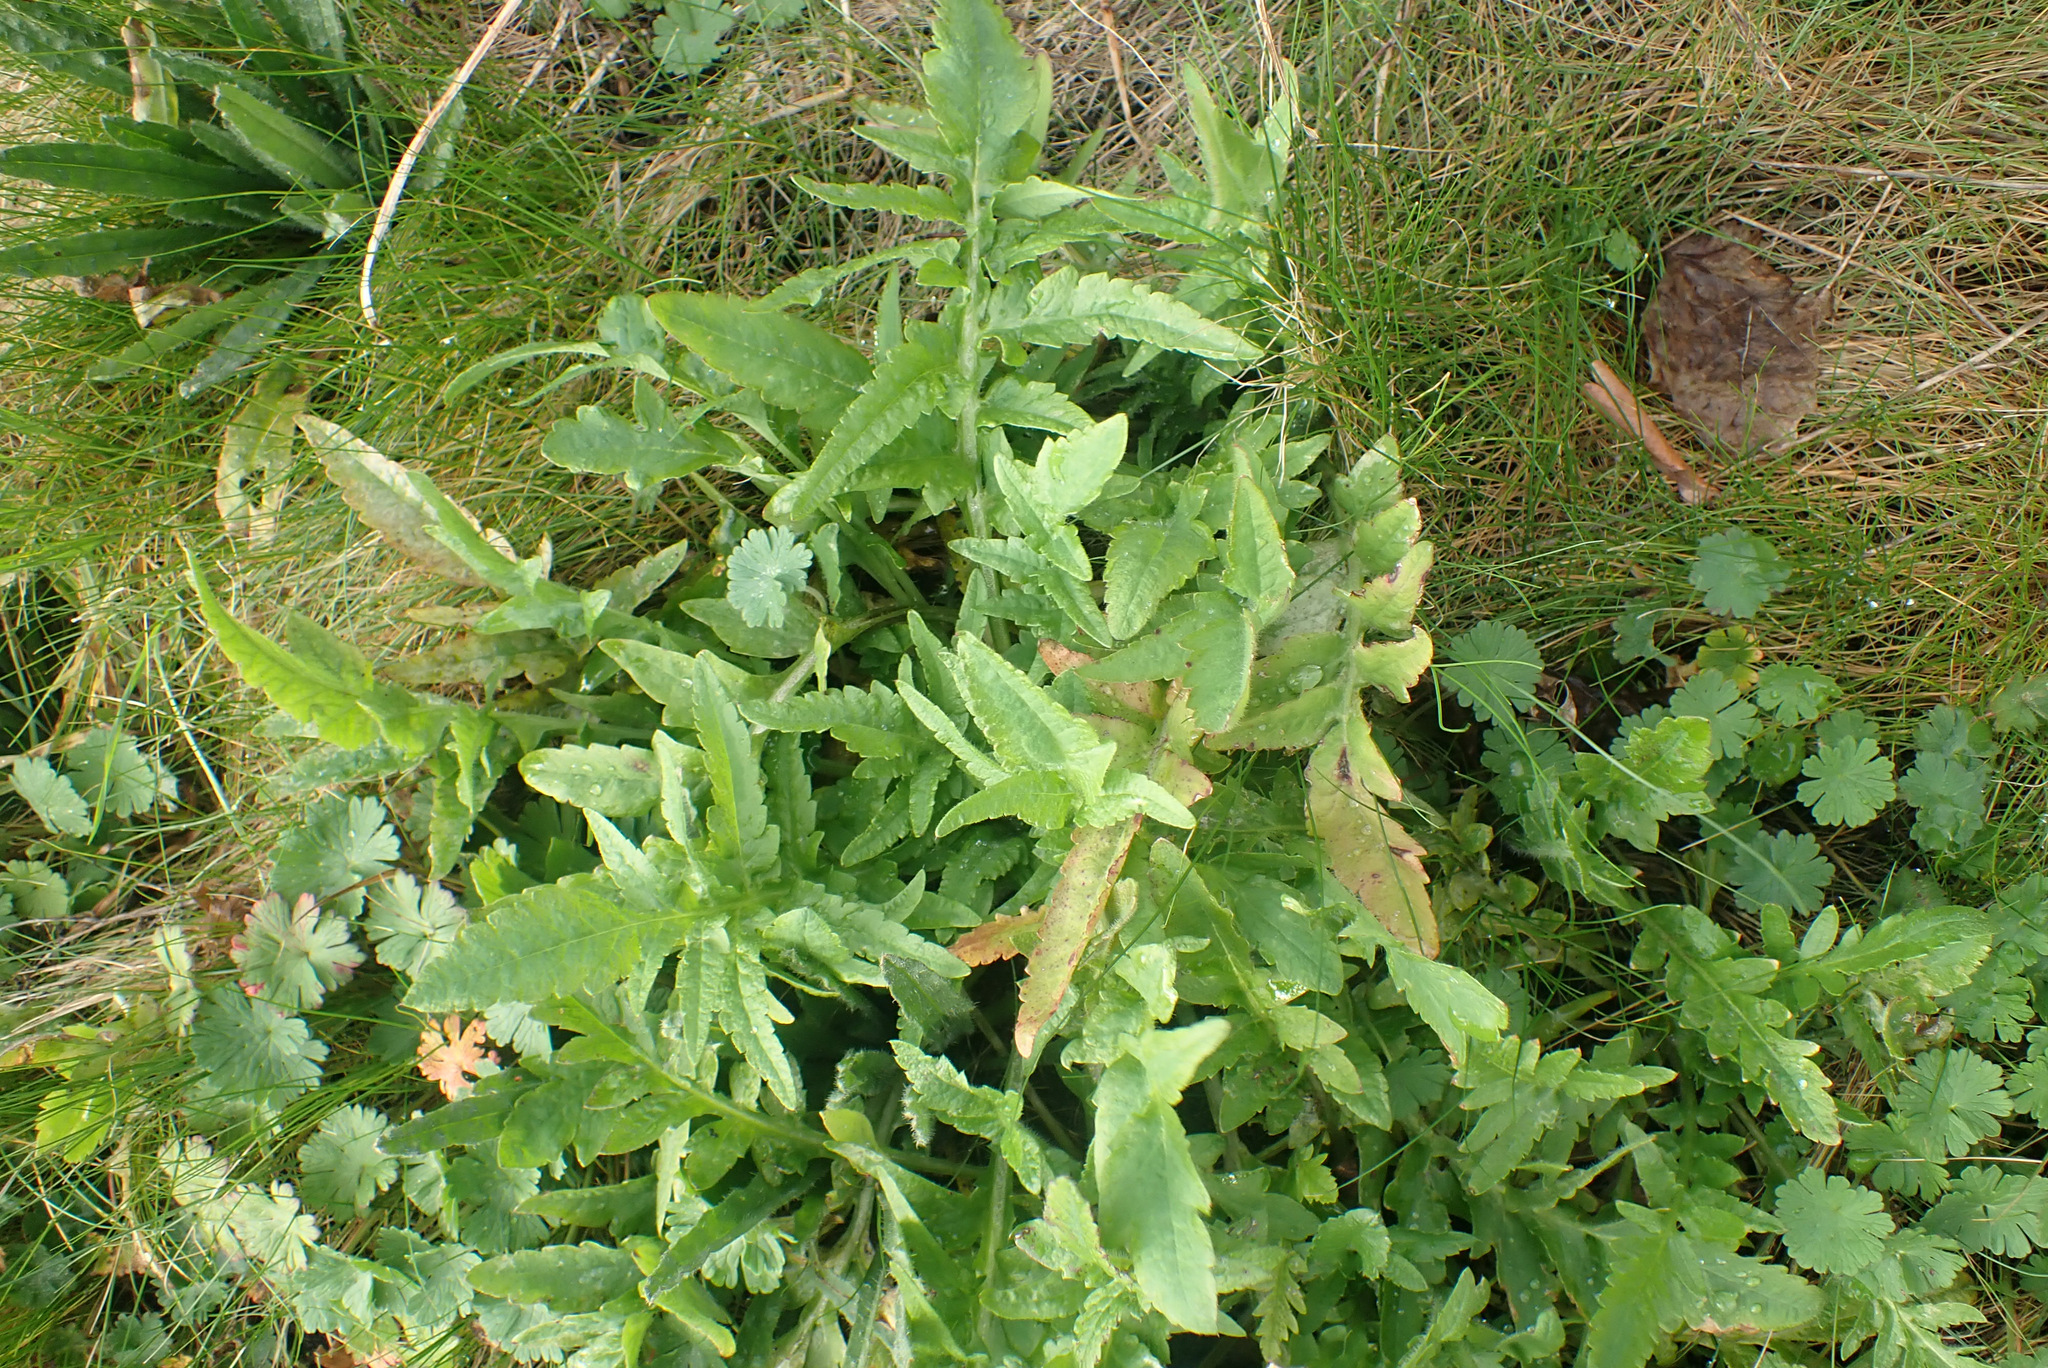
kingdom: Plantae
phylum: Tracheophyta
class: Magnoliopsida
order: Ranunculales
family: Papaveraceae
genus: Papaver
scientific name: Papaver rhoeas
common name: Corn poppy
